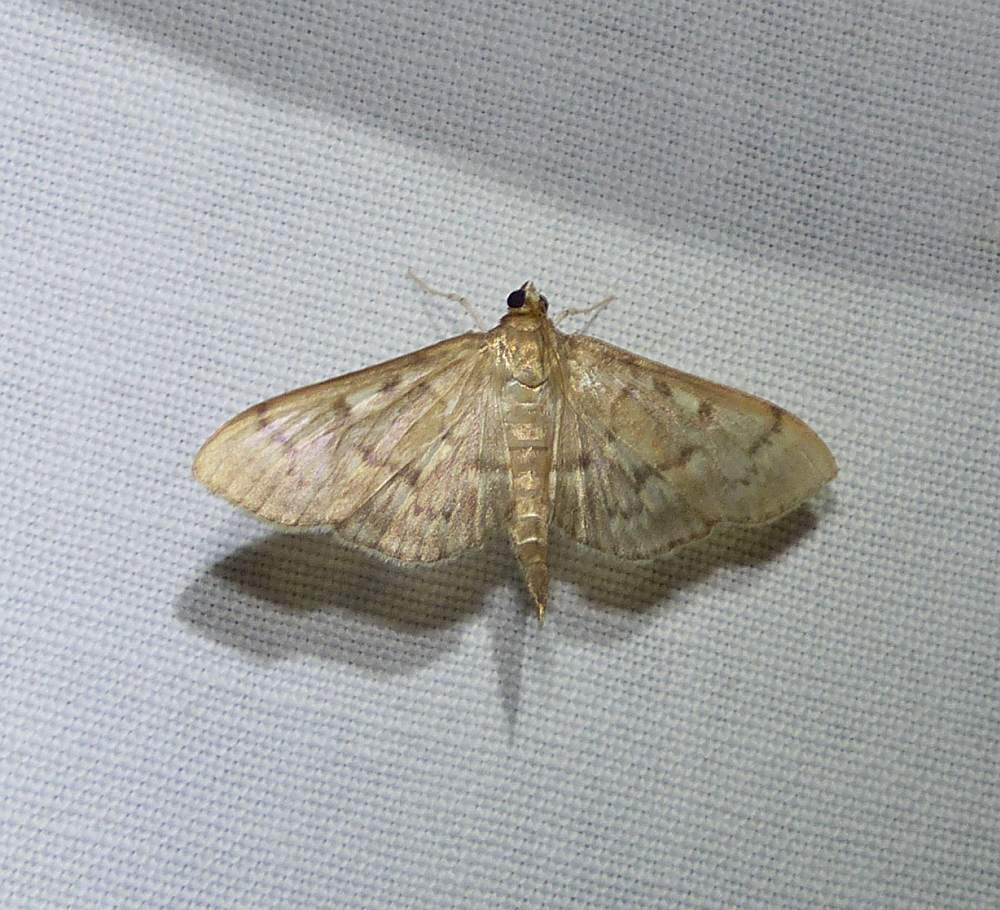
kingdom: Animalia
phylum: Arthropoda
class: Insecta
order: Lepidoptera
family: Crambidae
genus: Herpetogramma
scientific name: Herpetogramma aeglealis
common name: Serpentine webworm moth
